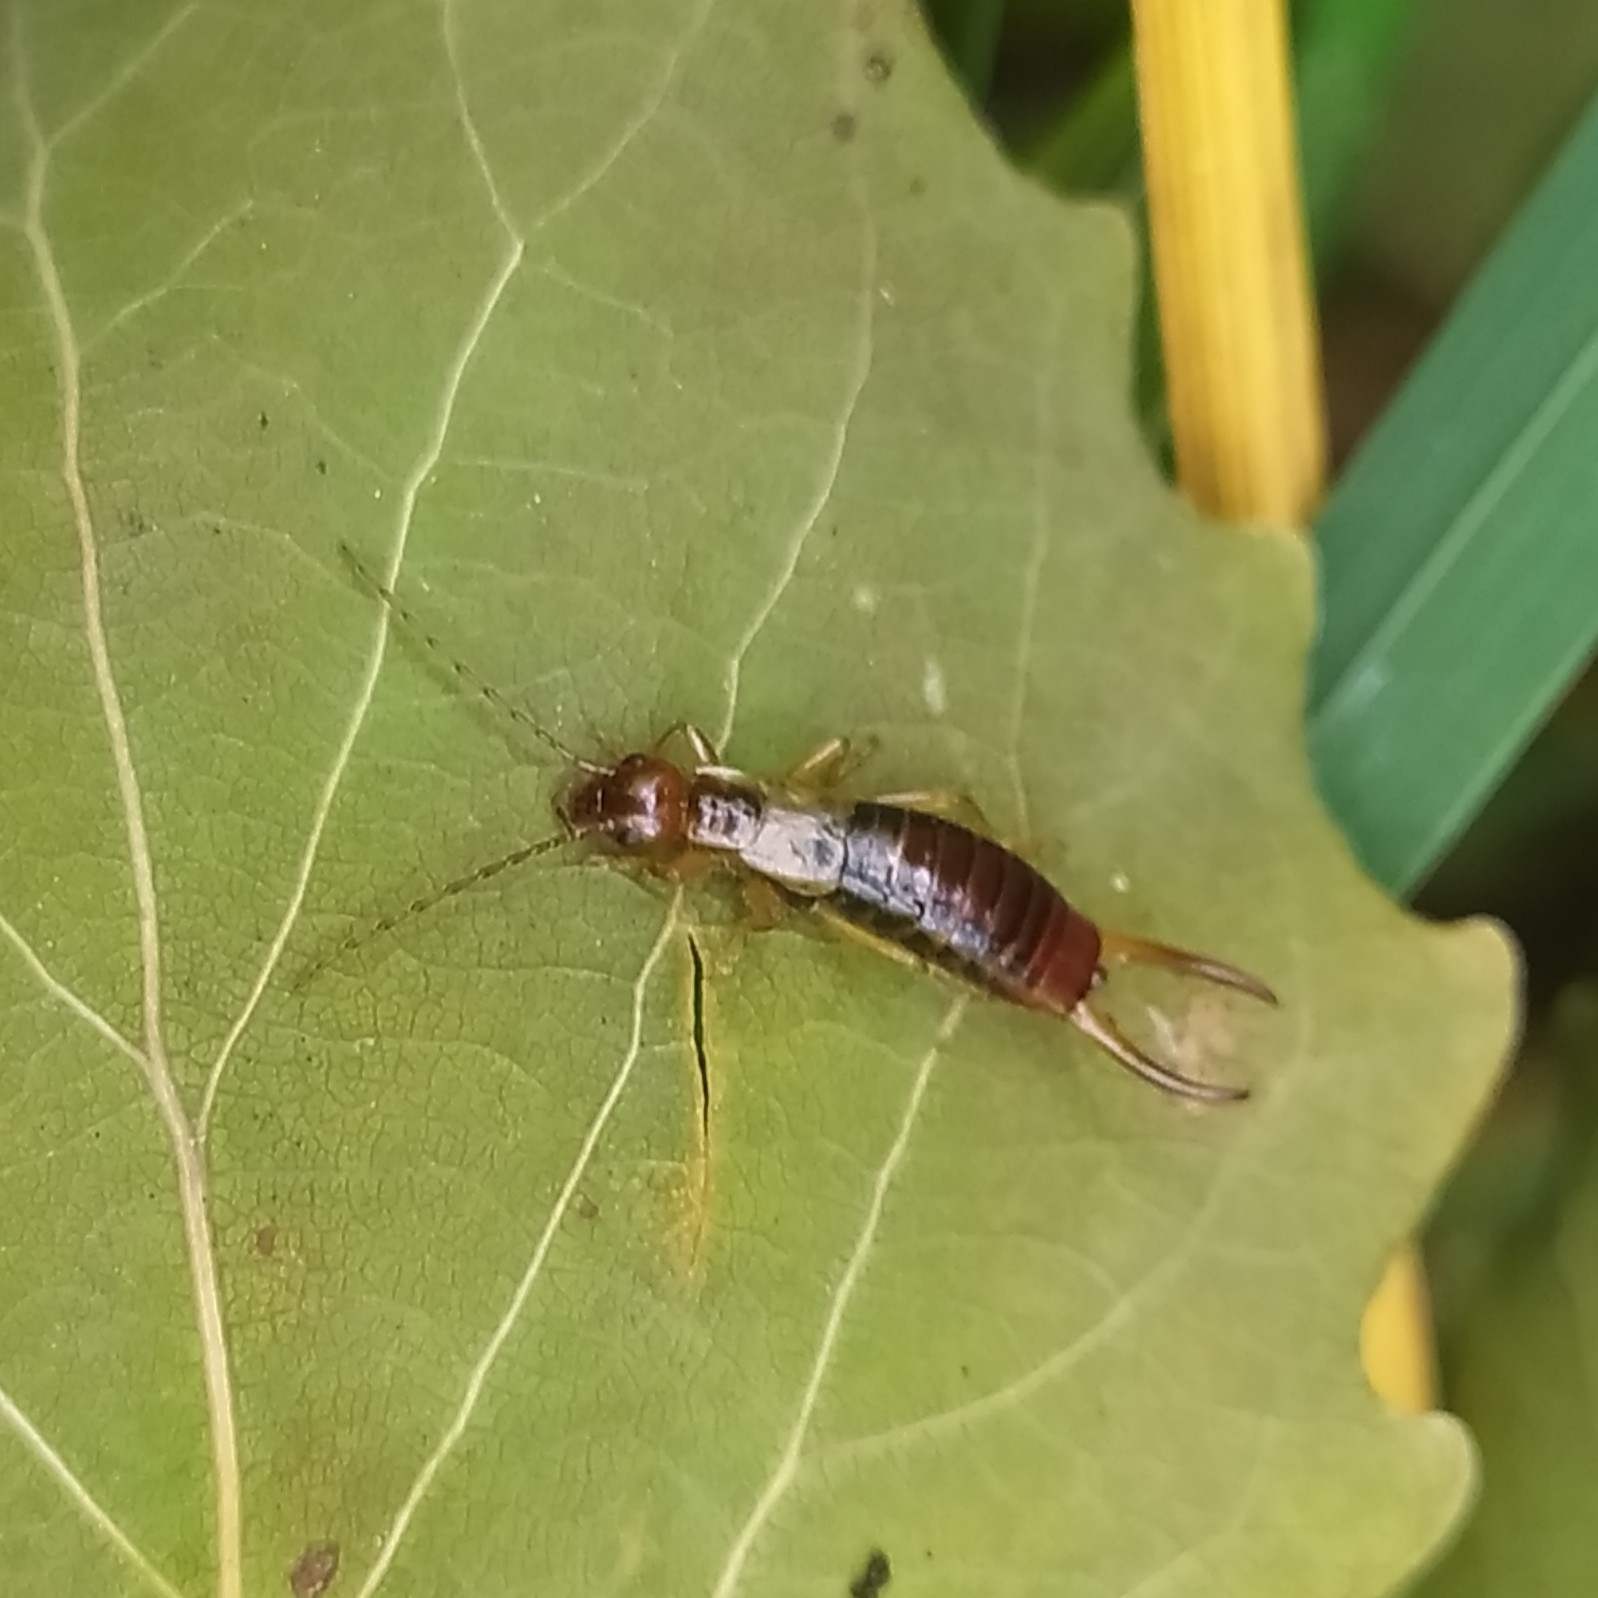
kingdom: Animalia
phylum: Arthropoda
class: Insecta
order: Dermaptera
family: Forficulidae
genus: Apterygida
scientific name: Apterygida albipennis
